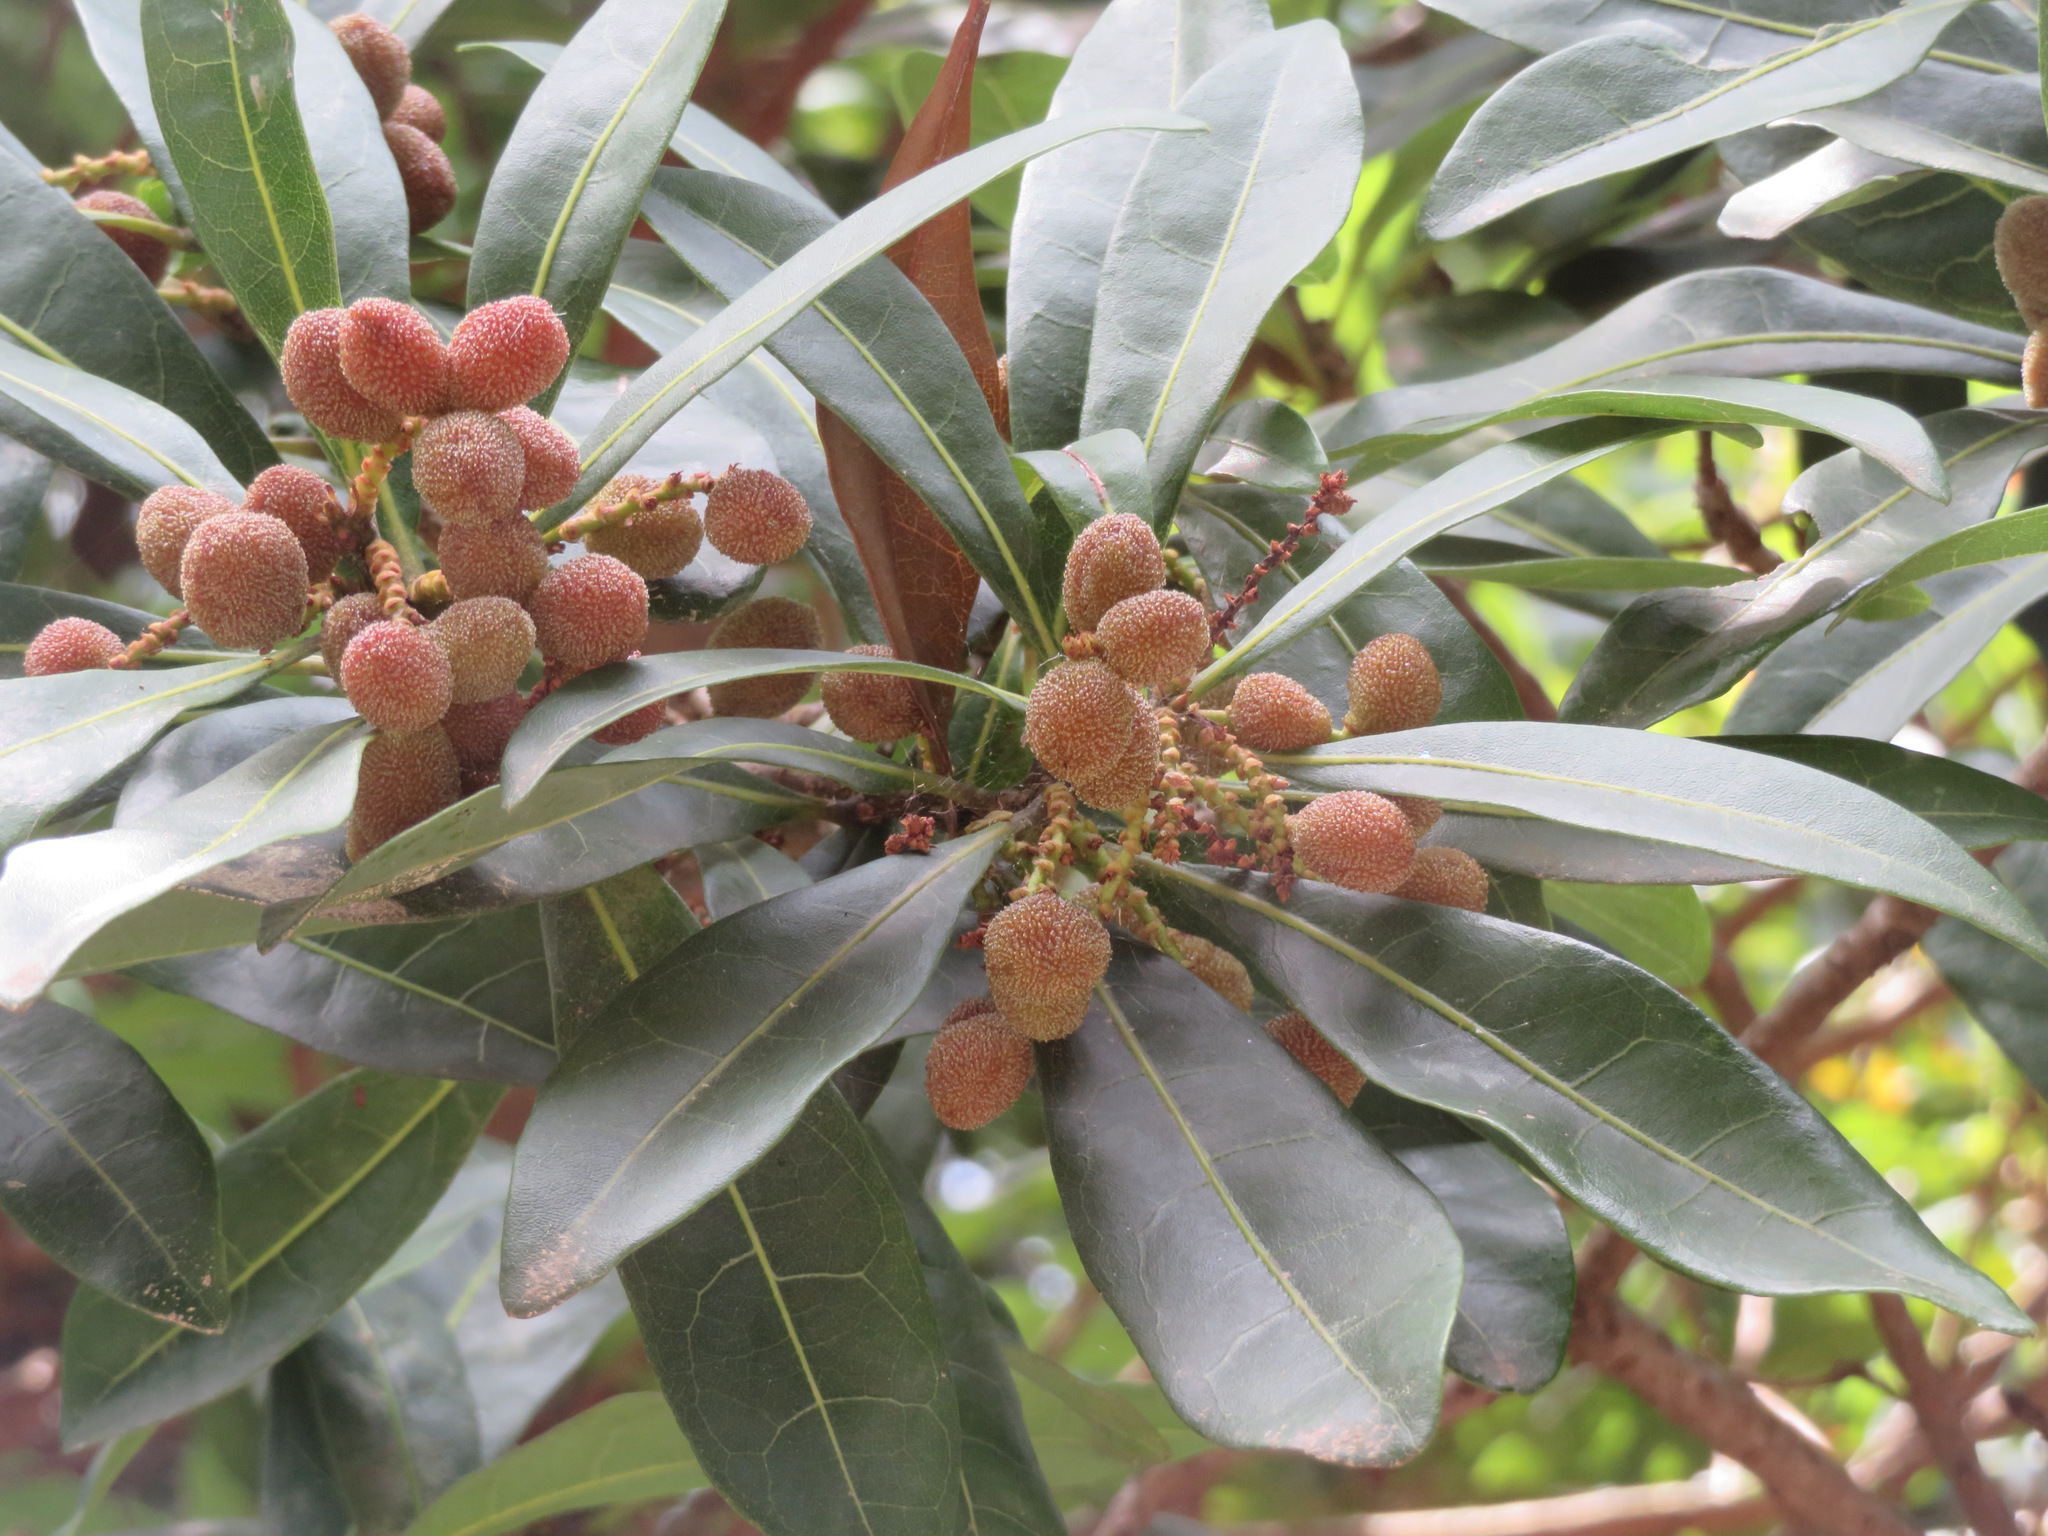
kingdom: Plantae
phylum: Tracheophyta
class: Magnoliopsida
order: Fagales
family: Myricaceae
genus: Morella
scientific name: Morella rubra
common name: Red bayberry
